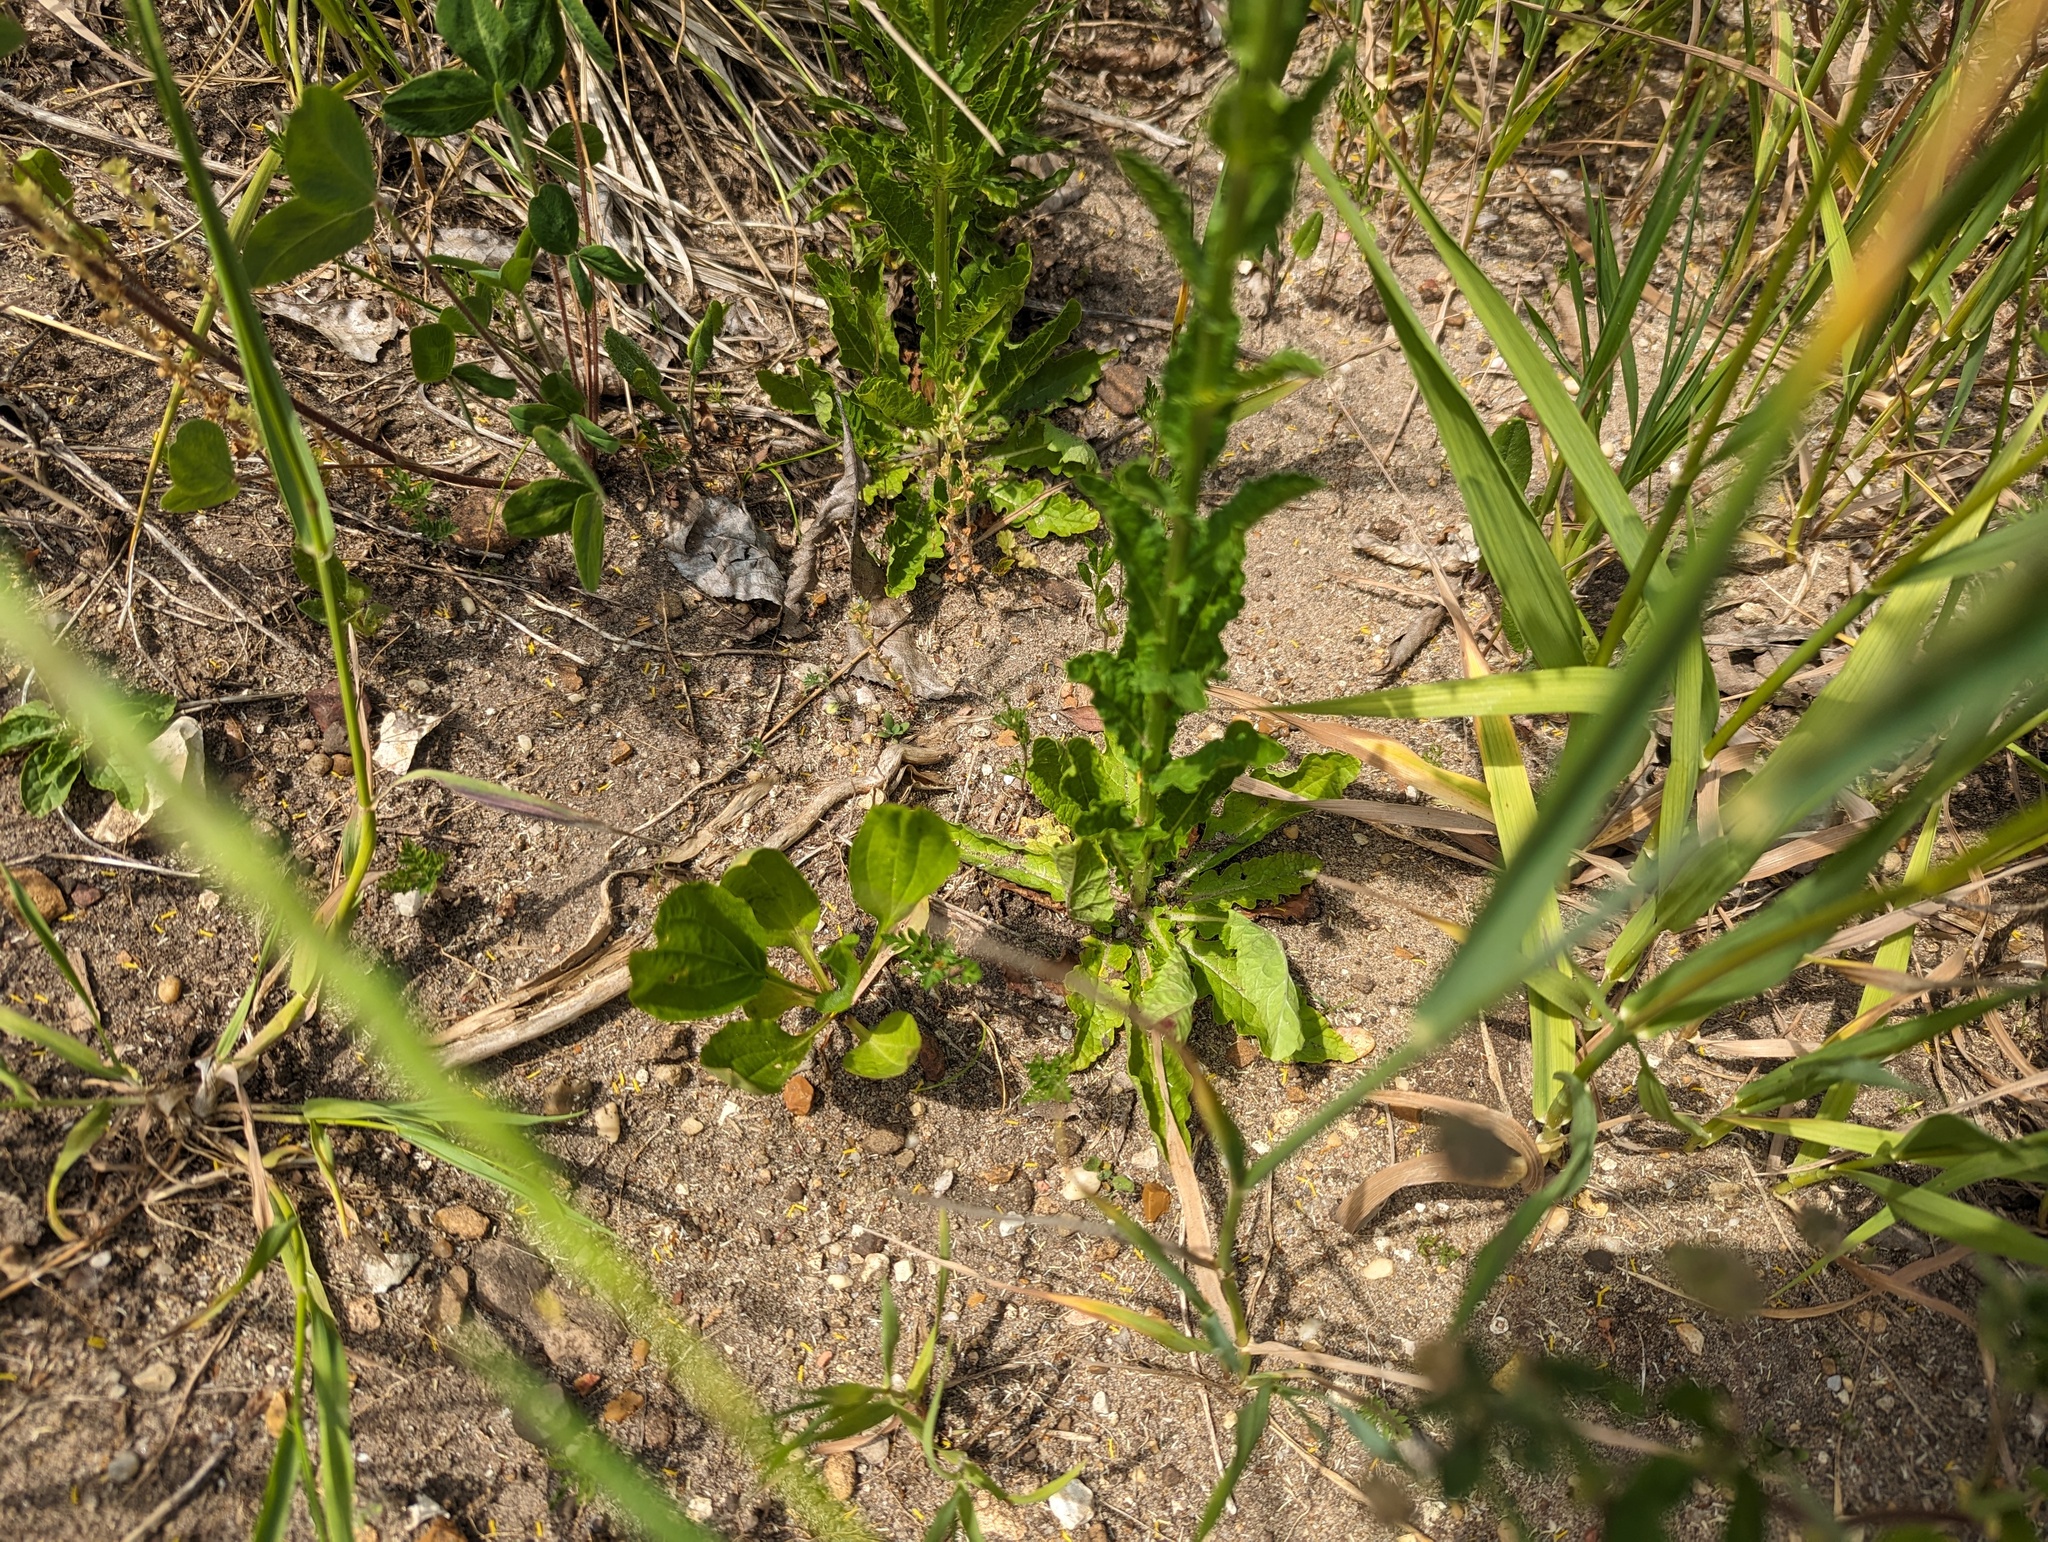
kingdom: Plantae
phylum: Tracheophyta
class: Magnoliopsida
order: Lamiales
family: Scrophulariaceae
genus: Verbascum
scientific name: Verbascum blattaria
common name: Moth mullein
